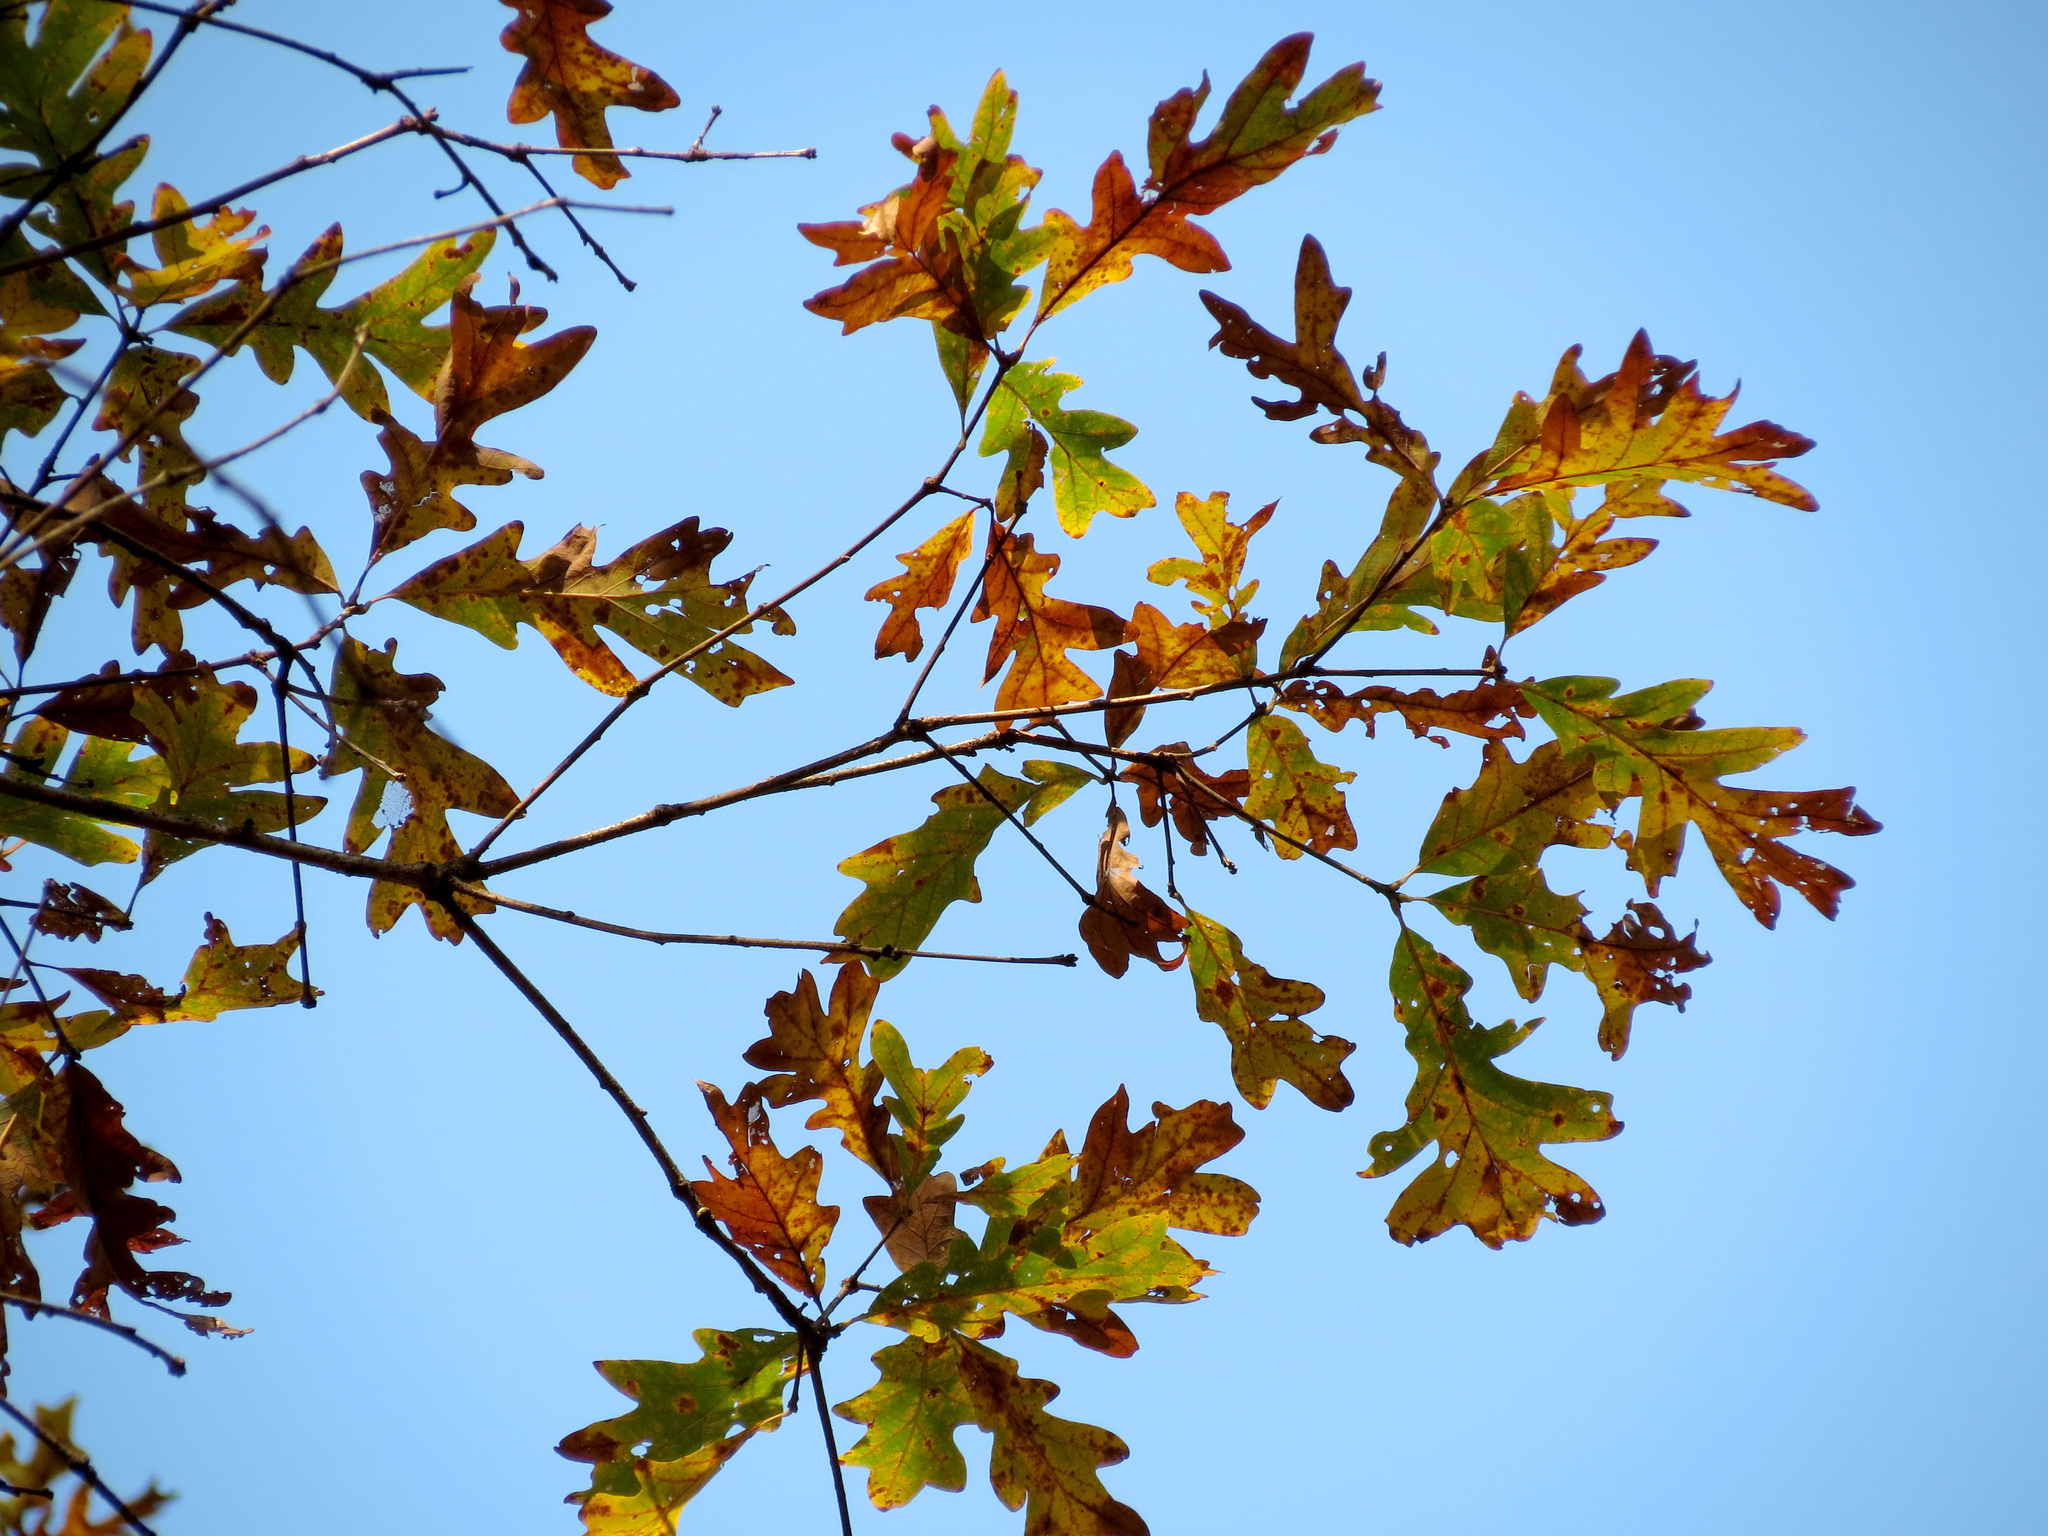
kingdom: Plantae
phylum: Tracheophyta
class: Magnoliopsida
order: Fagales
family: Fagaceae
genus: Quercus
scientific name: Quercus alba
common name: White oak
